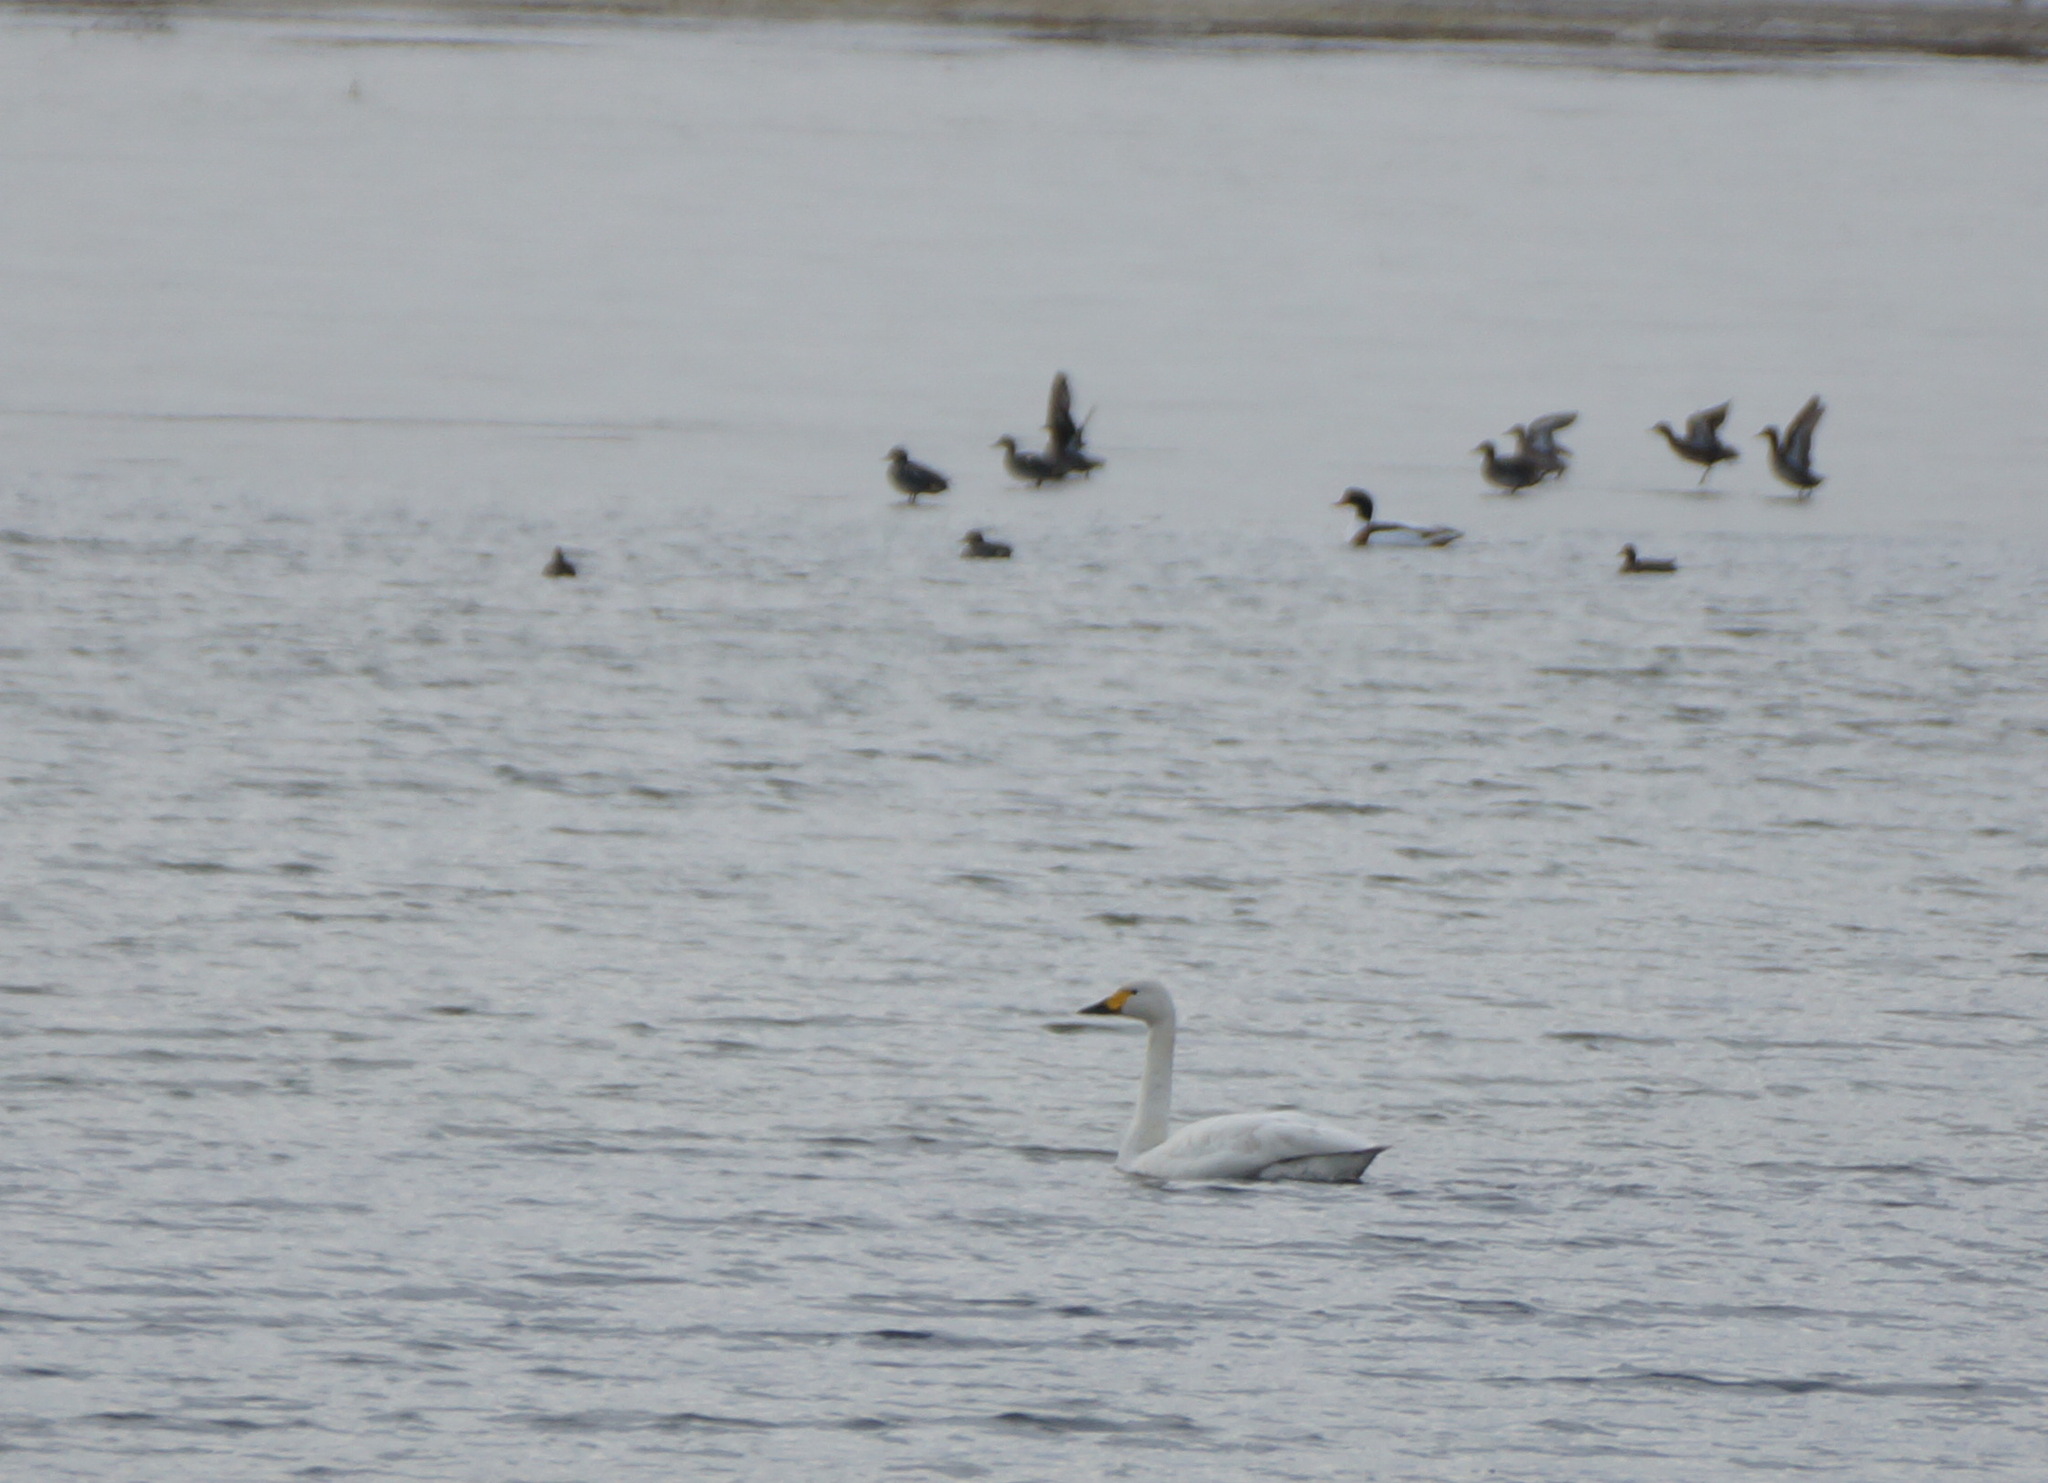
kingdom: Animalia
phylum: Chordata
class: Aves
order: Anseriformes
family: Anatidae
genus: Cygnus
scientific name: Cygnus columbianus
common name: Tundra swan
